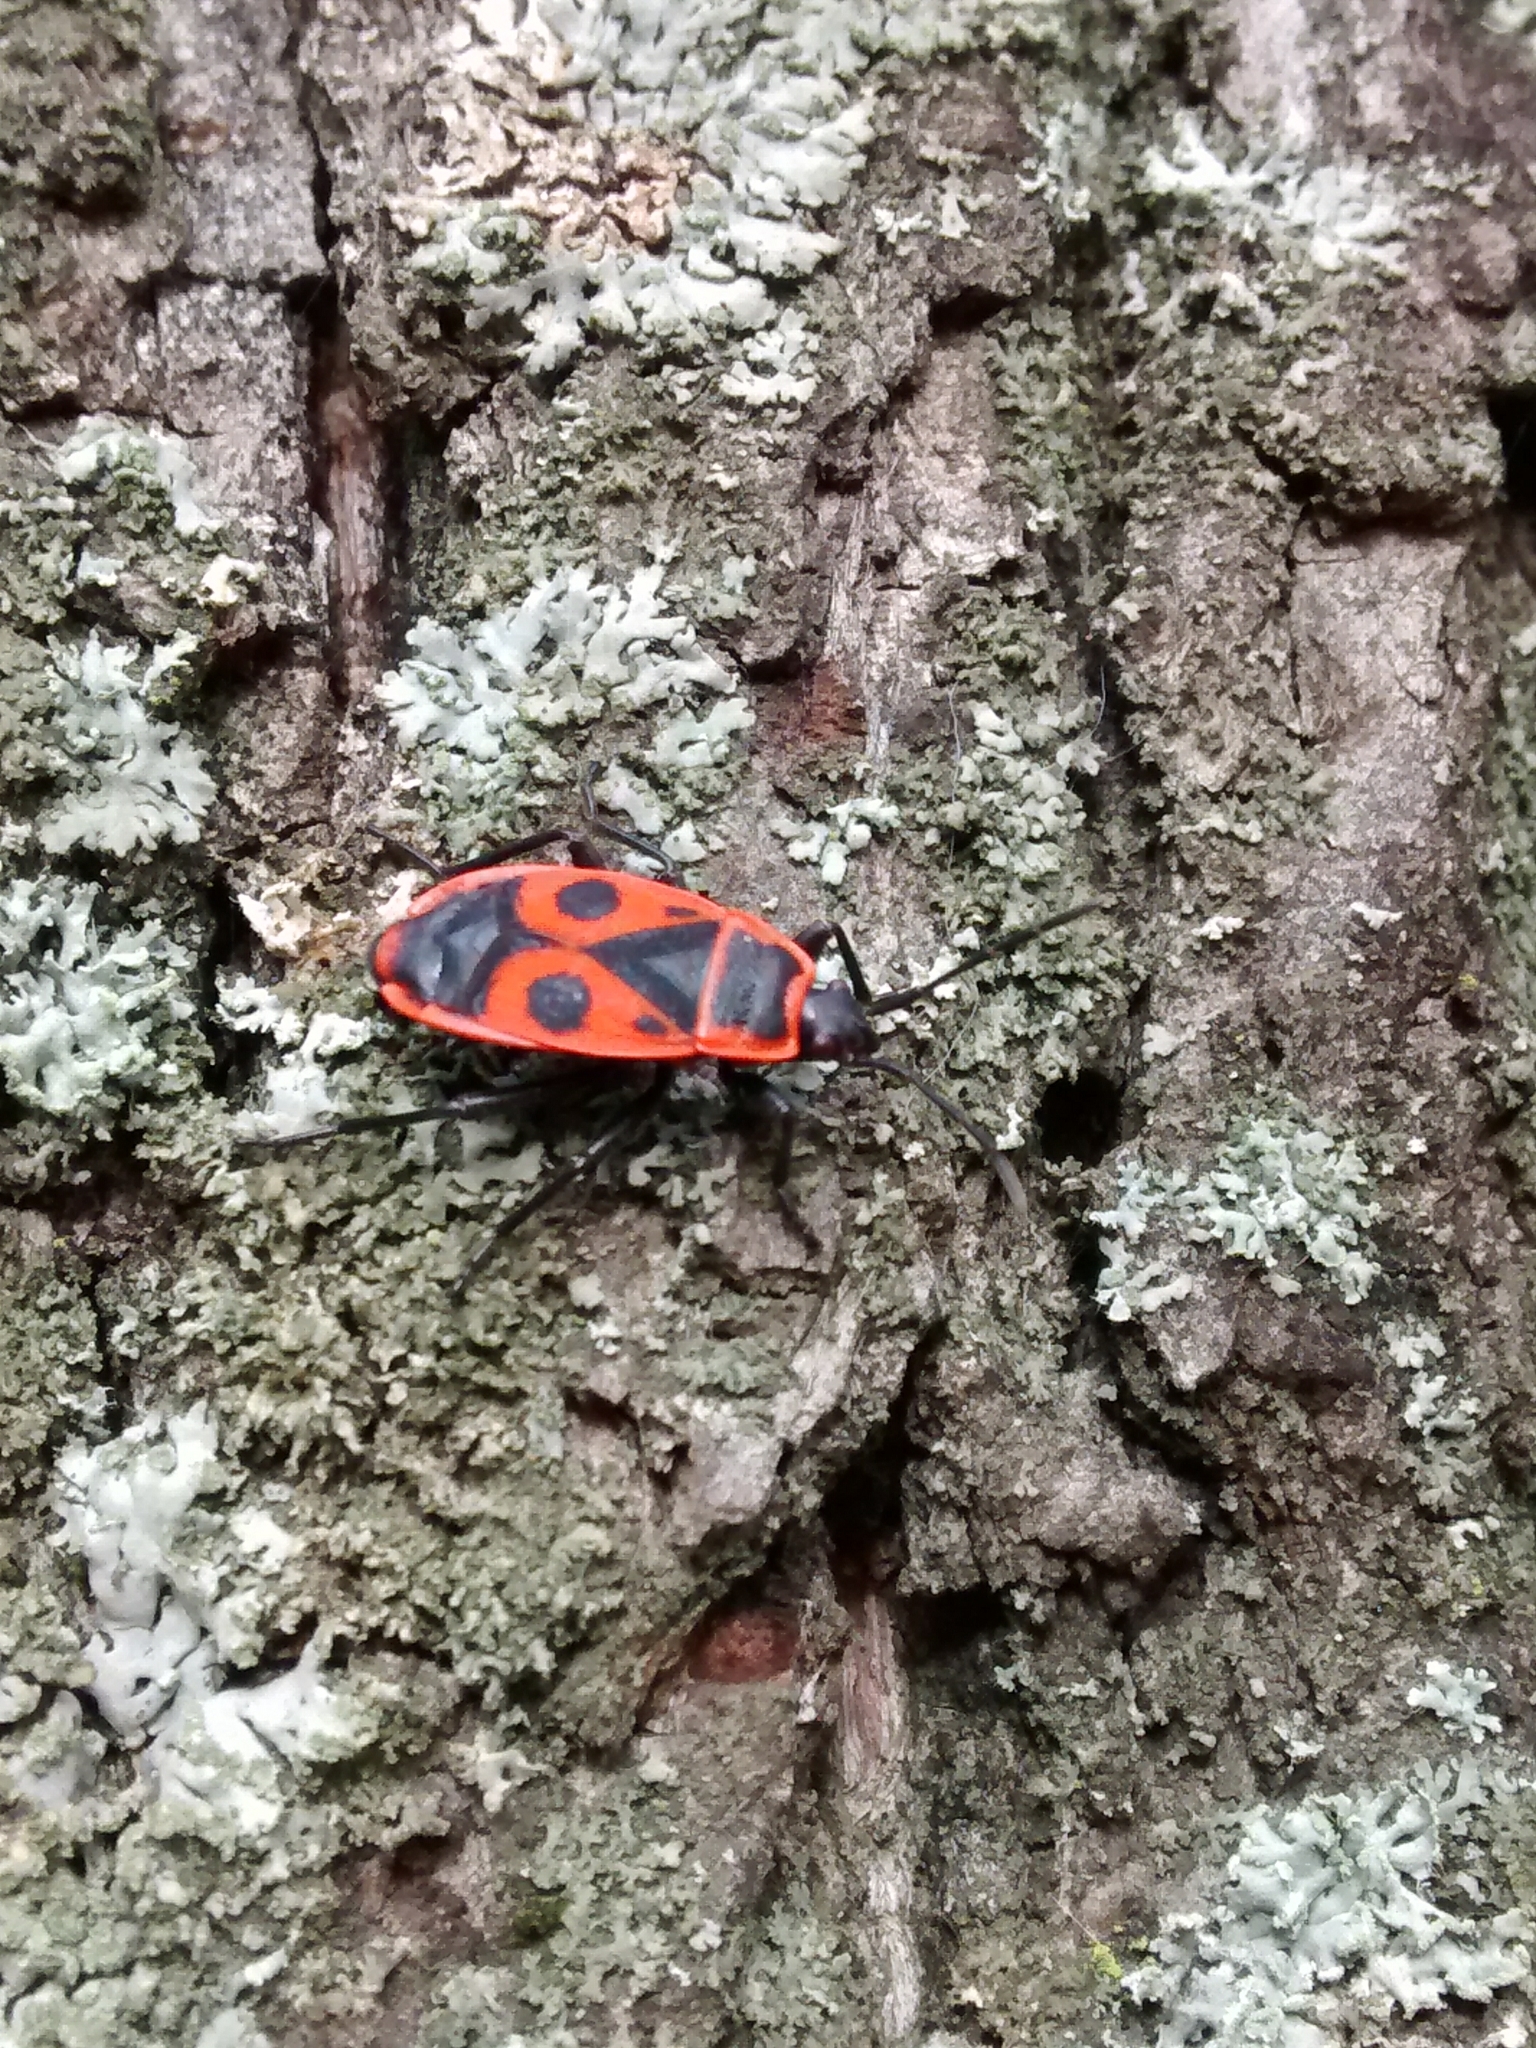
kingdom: Animalia
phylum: Arthropoda
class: Insecta
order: Hemiptera
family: Pyrrhocoridae
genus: Pyrrhocoris
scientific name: Pyrrhocoris apterus
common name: Firebug
